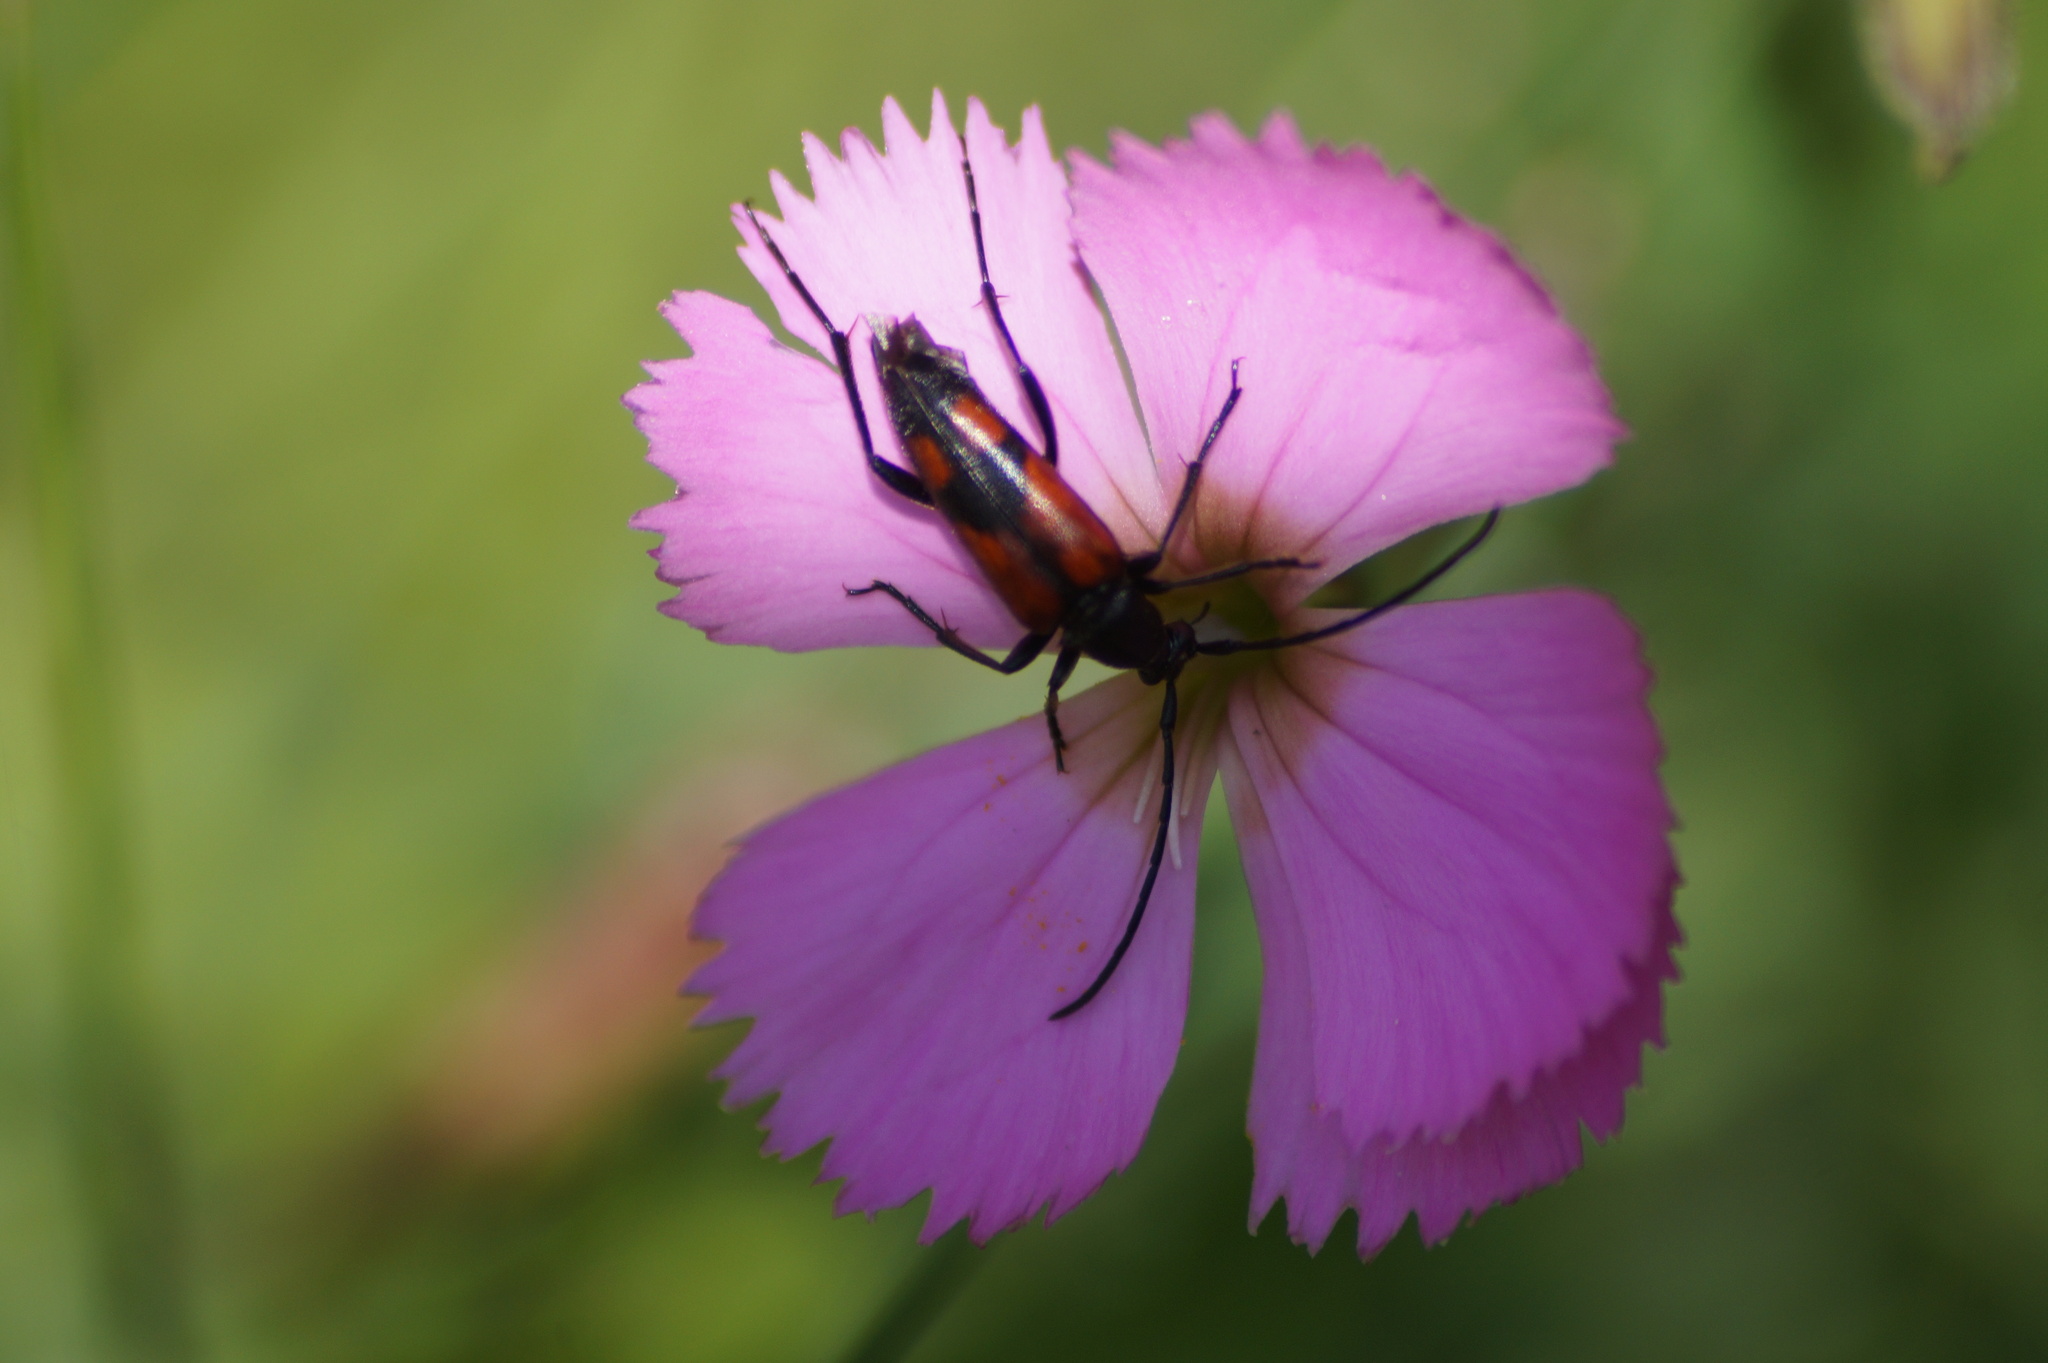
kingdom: Animalia
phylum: Arthropoda
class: Insecta
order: Coleoptera
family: Cerambycidae
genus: Stenurella
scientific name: Stenurella bifasciata
